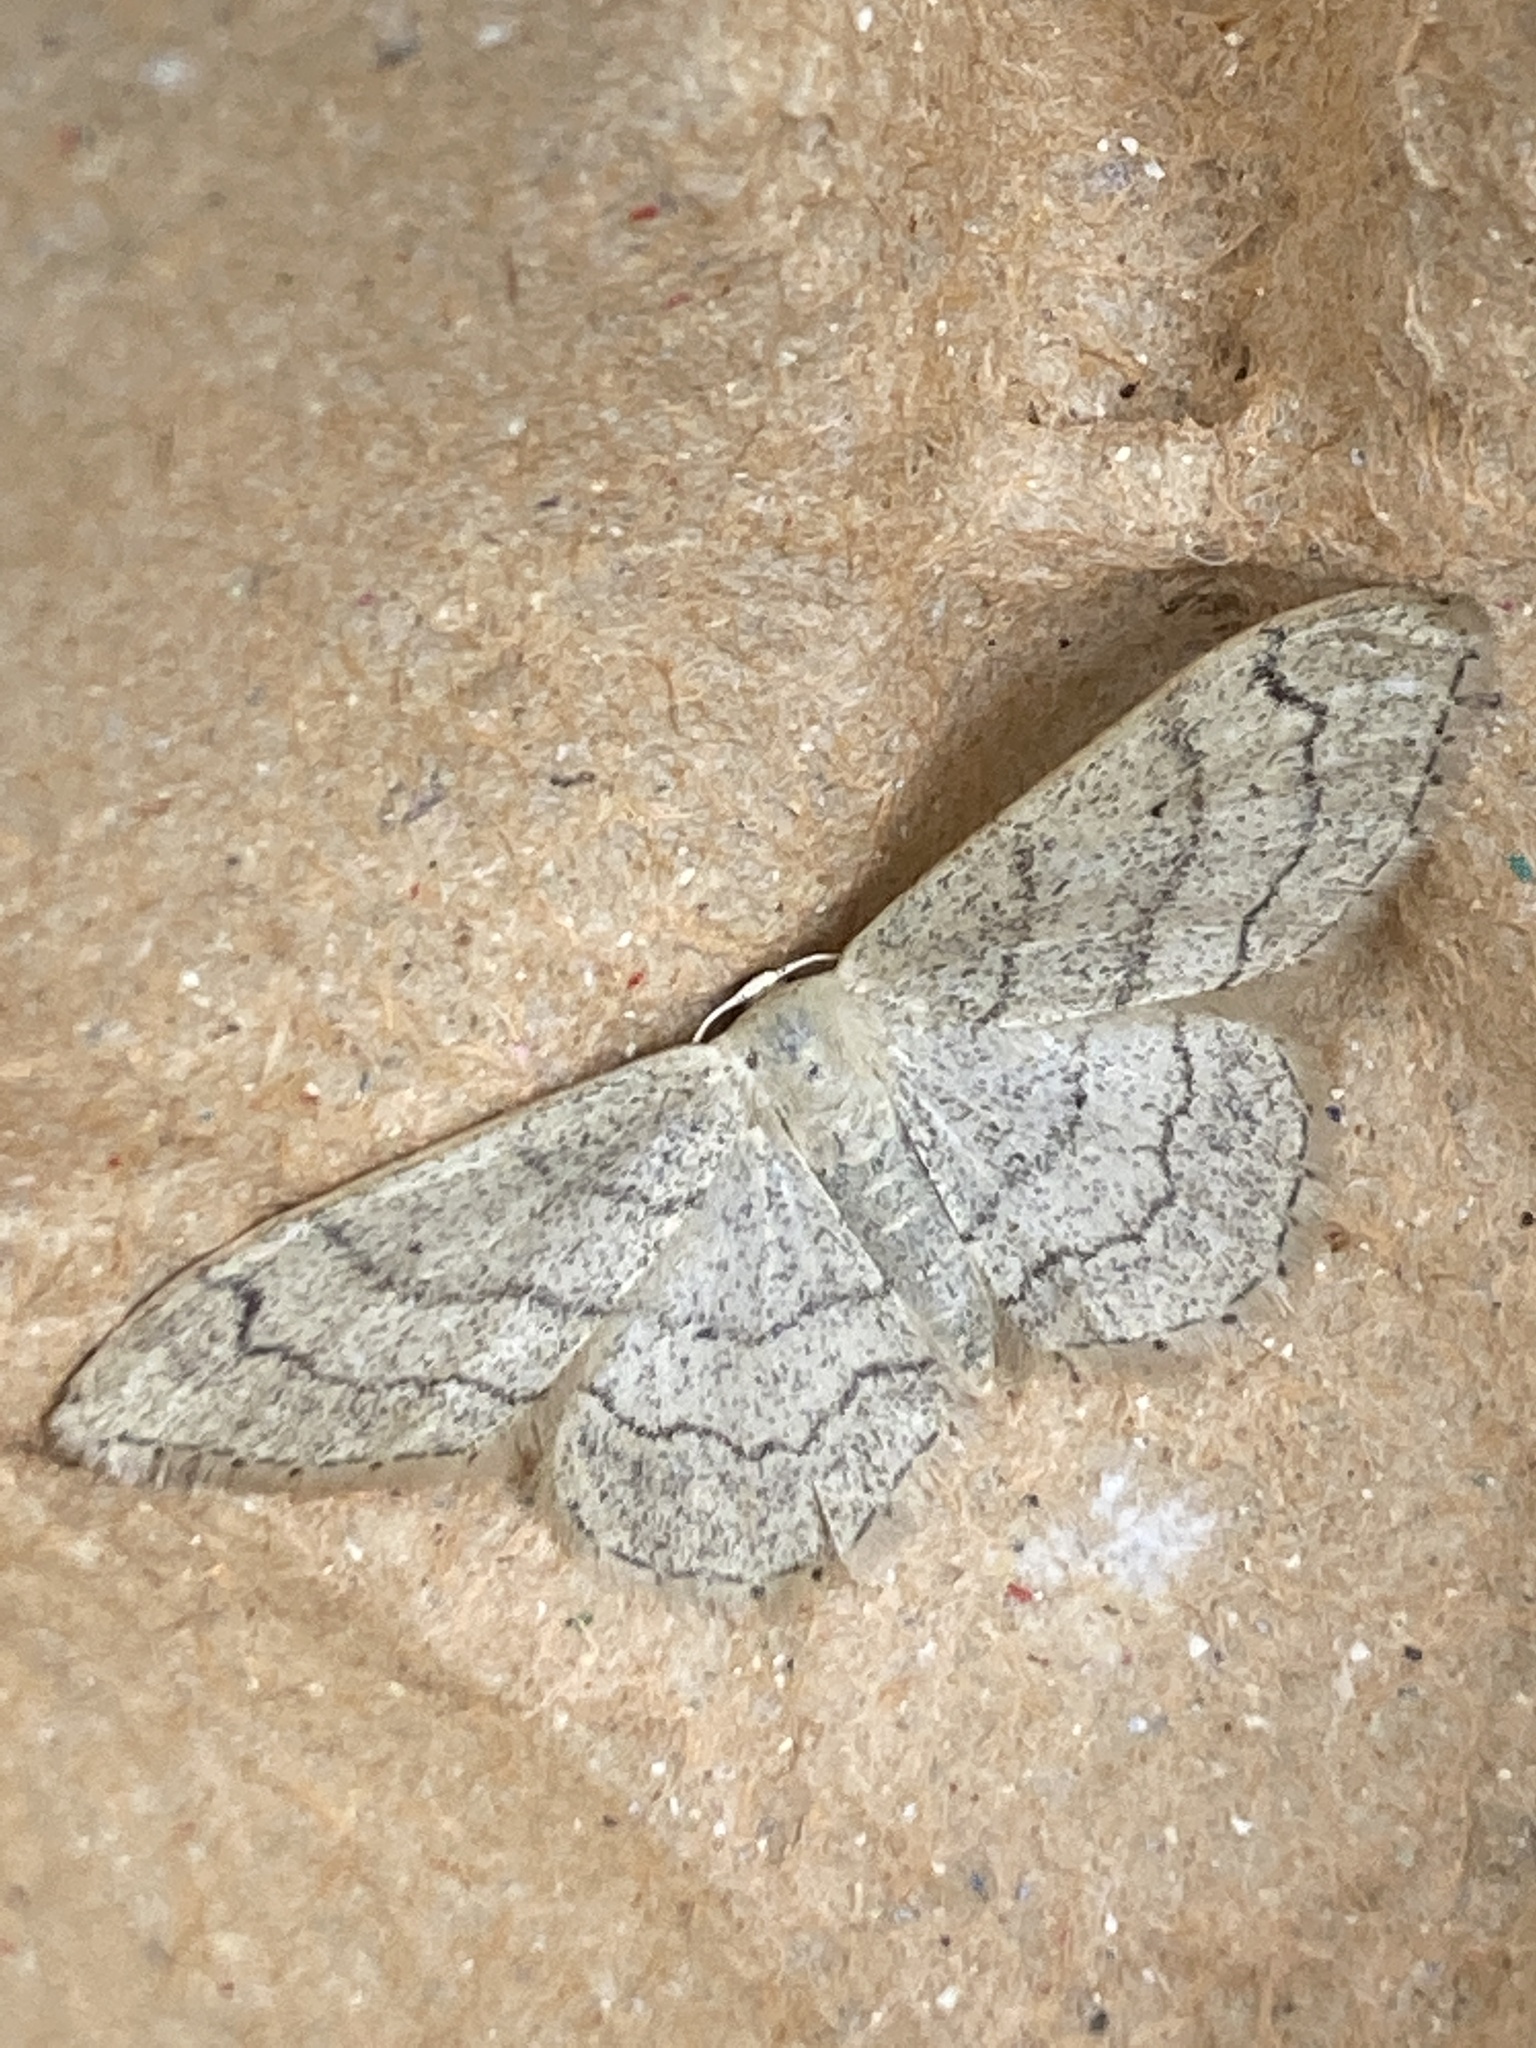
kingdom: Animalia
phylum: Arthropoda
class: Insecta
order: Lepidoptera
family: Geometridae
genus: Idaea
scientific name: Idaea aversata
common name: Riband wave
